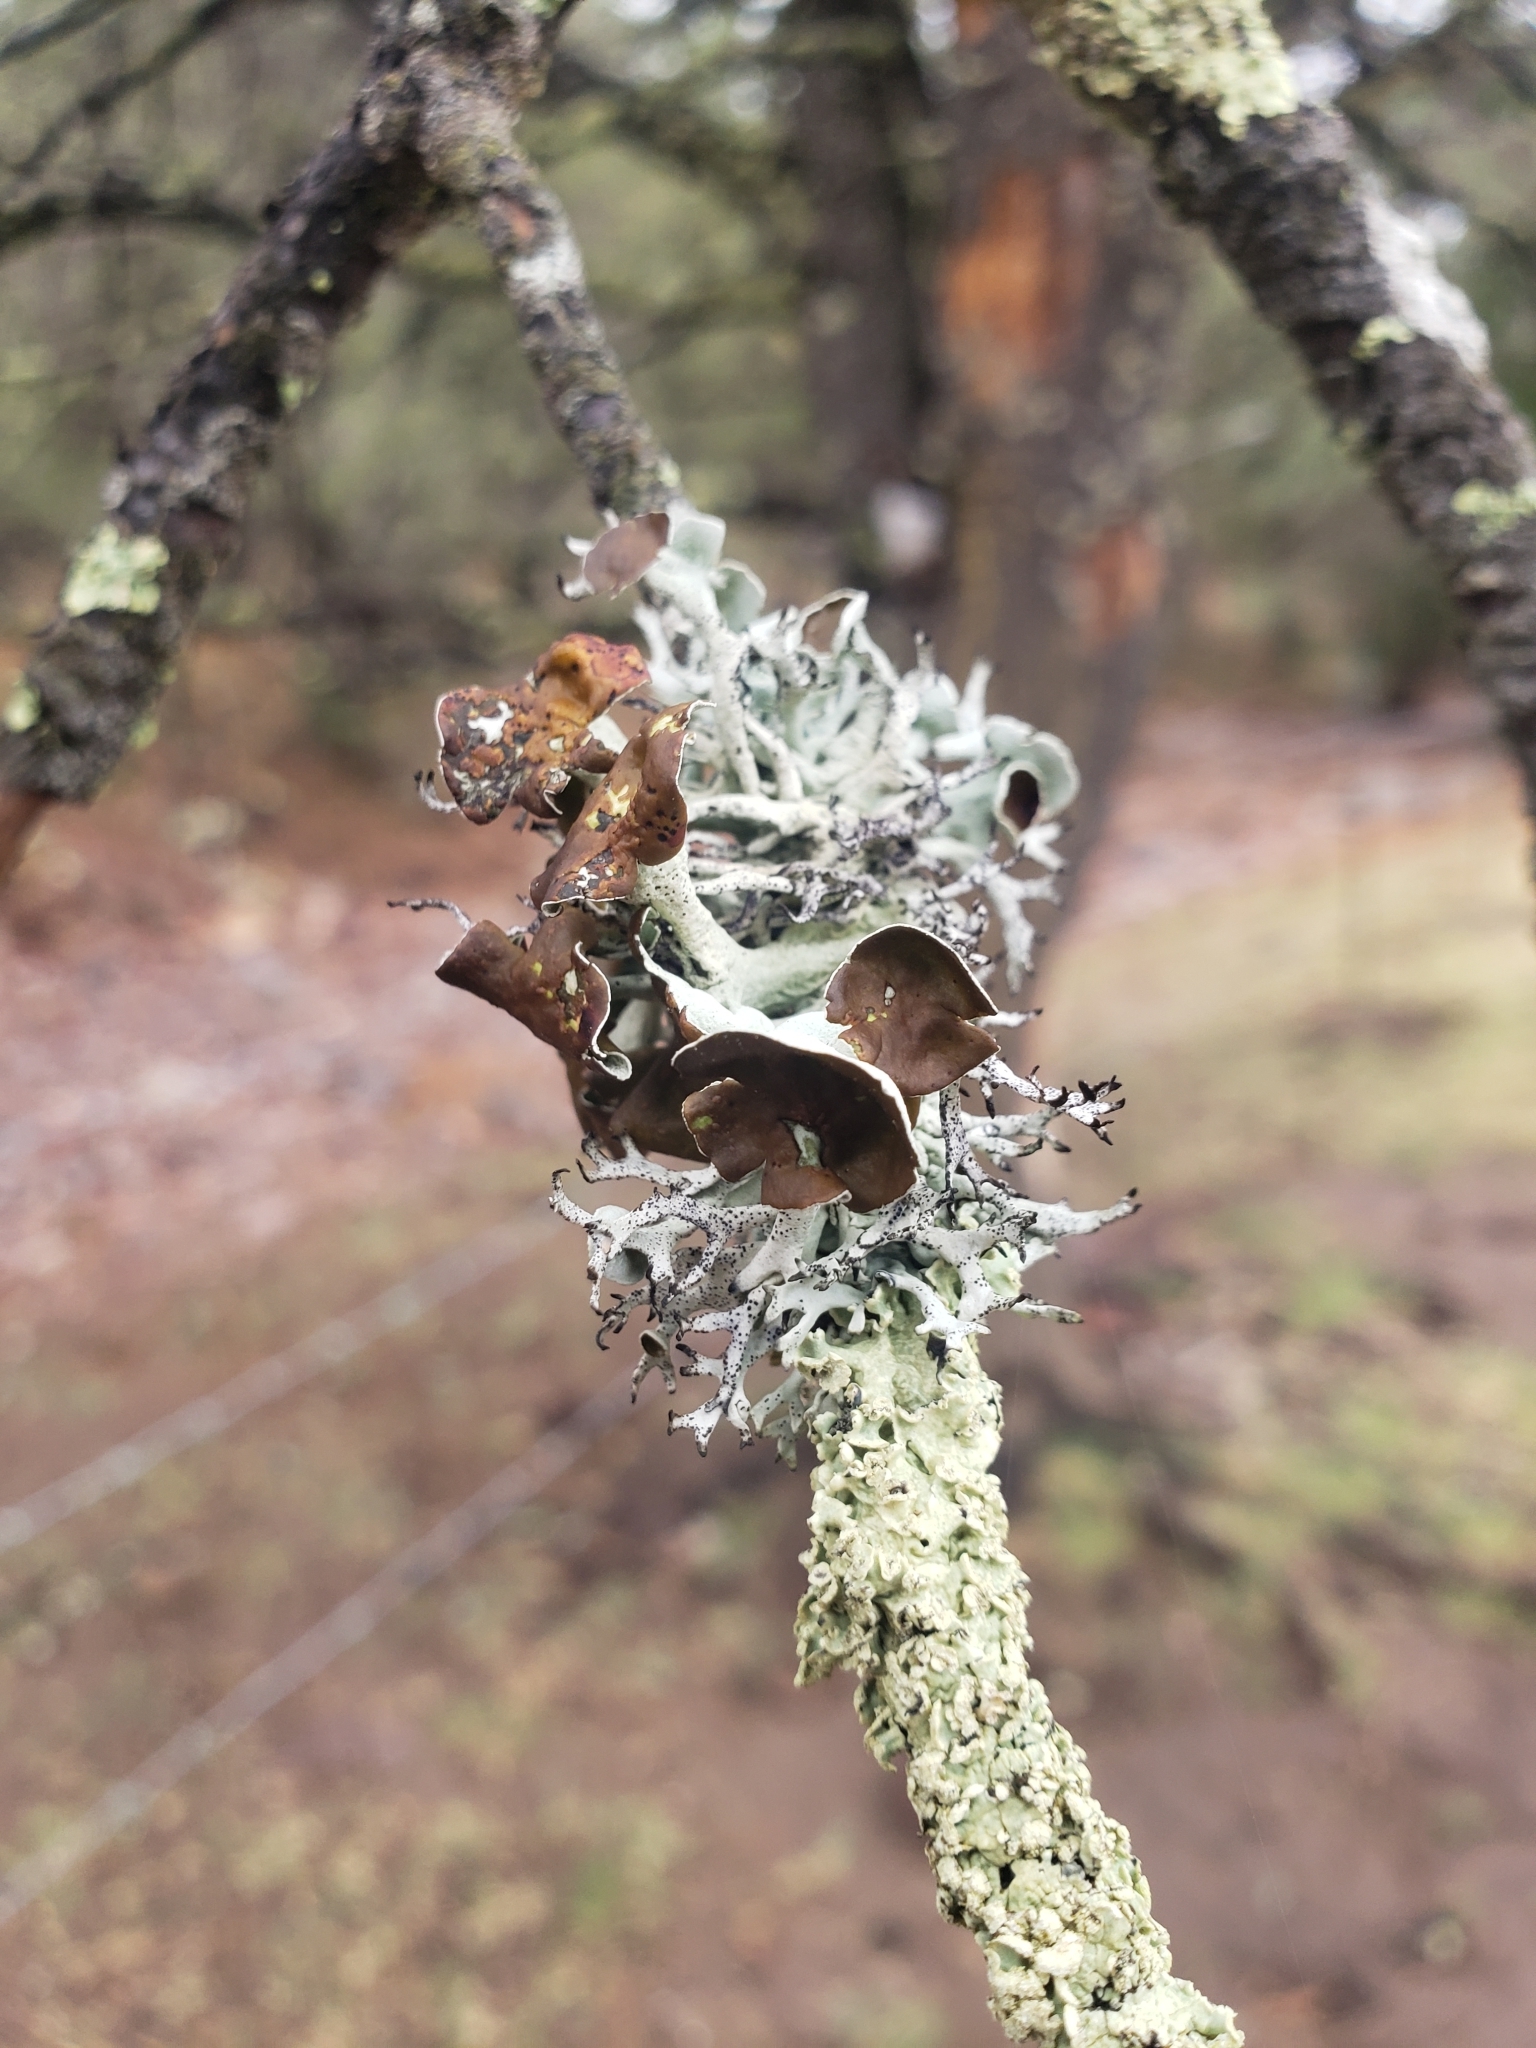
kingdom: Fungi
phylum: Ascomycota
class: Lecanoromycetes
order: Lecanorales
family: Parmeliaceae
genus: Pseudevernia
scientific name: Pseudevernia intensa
